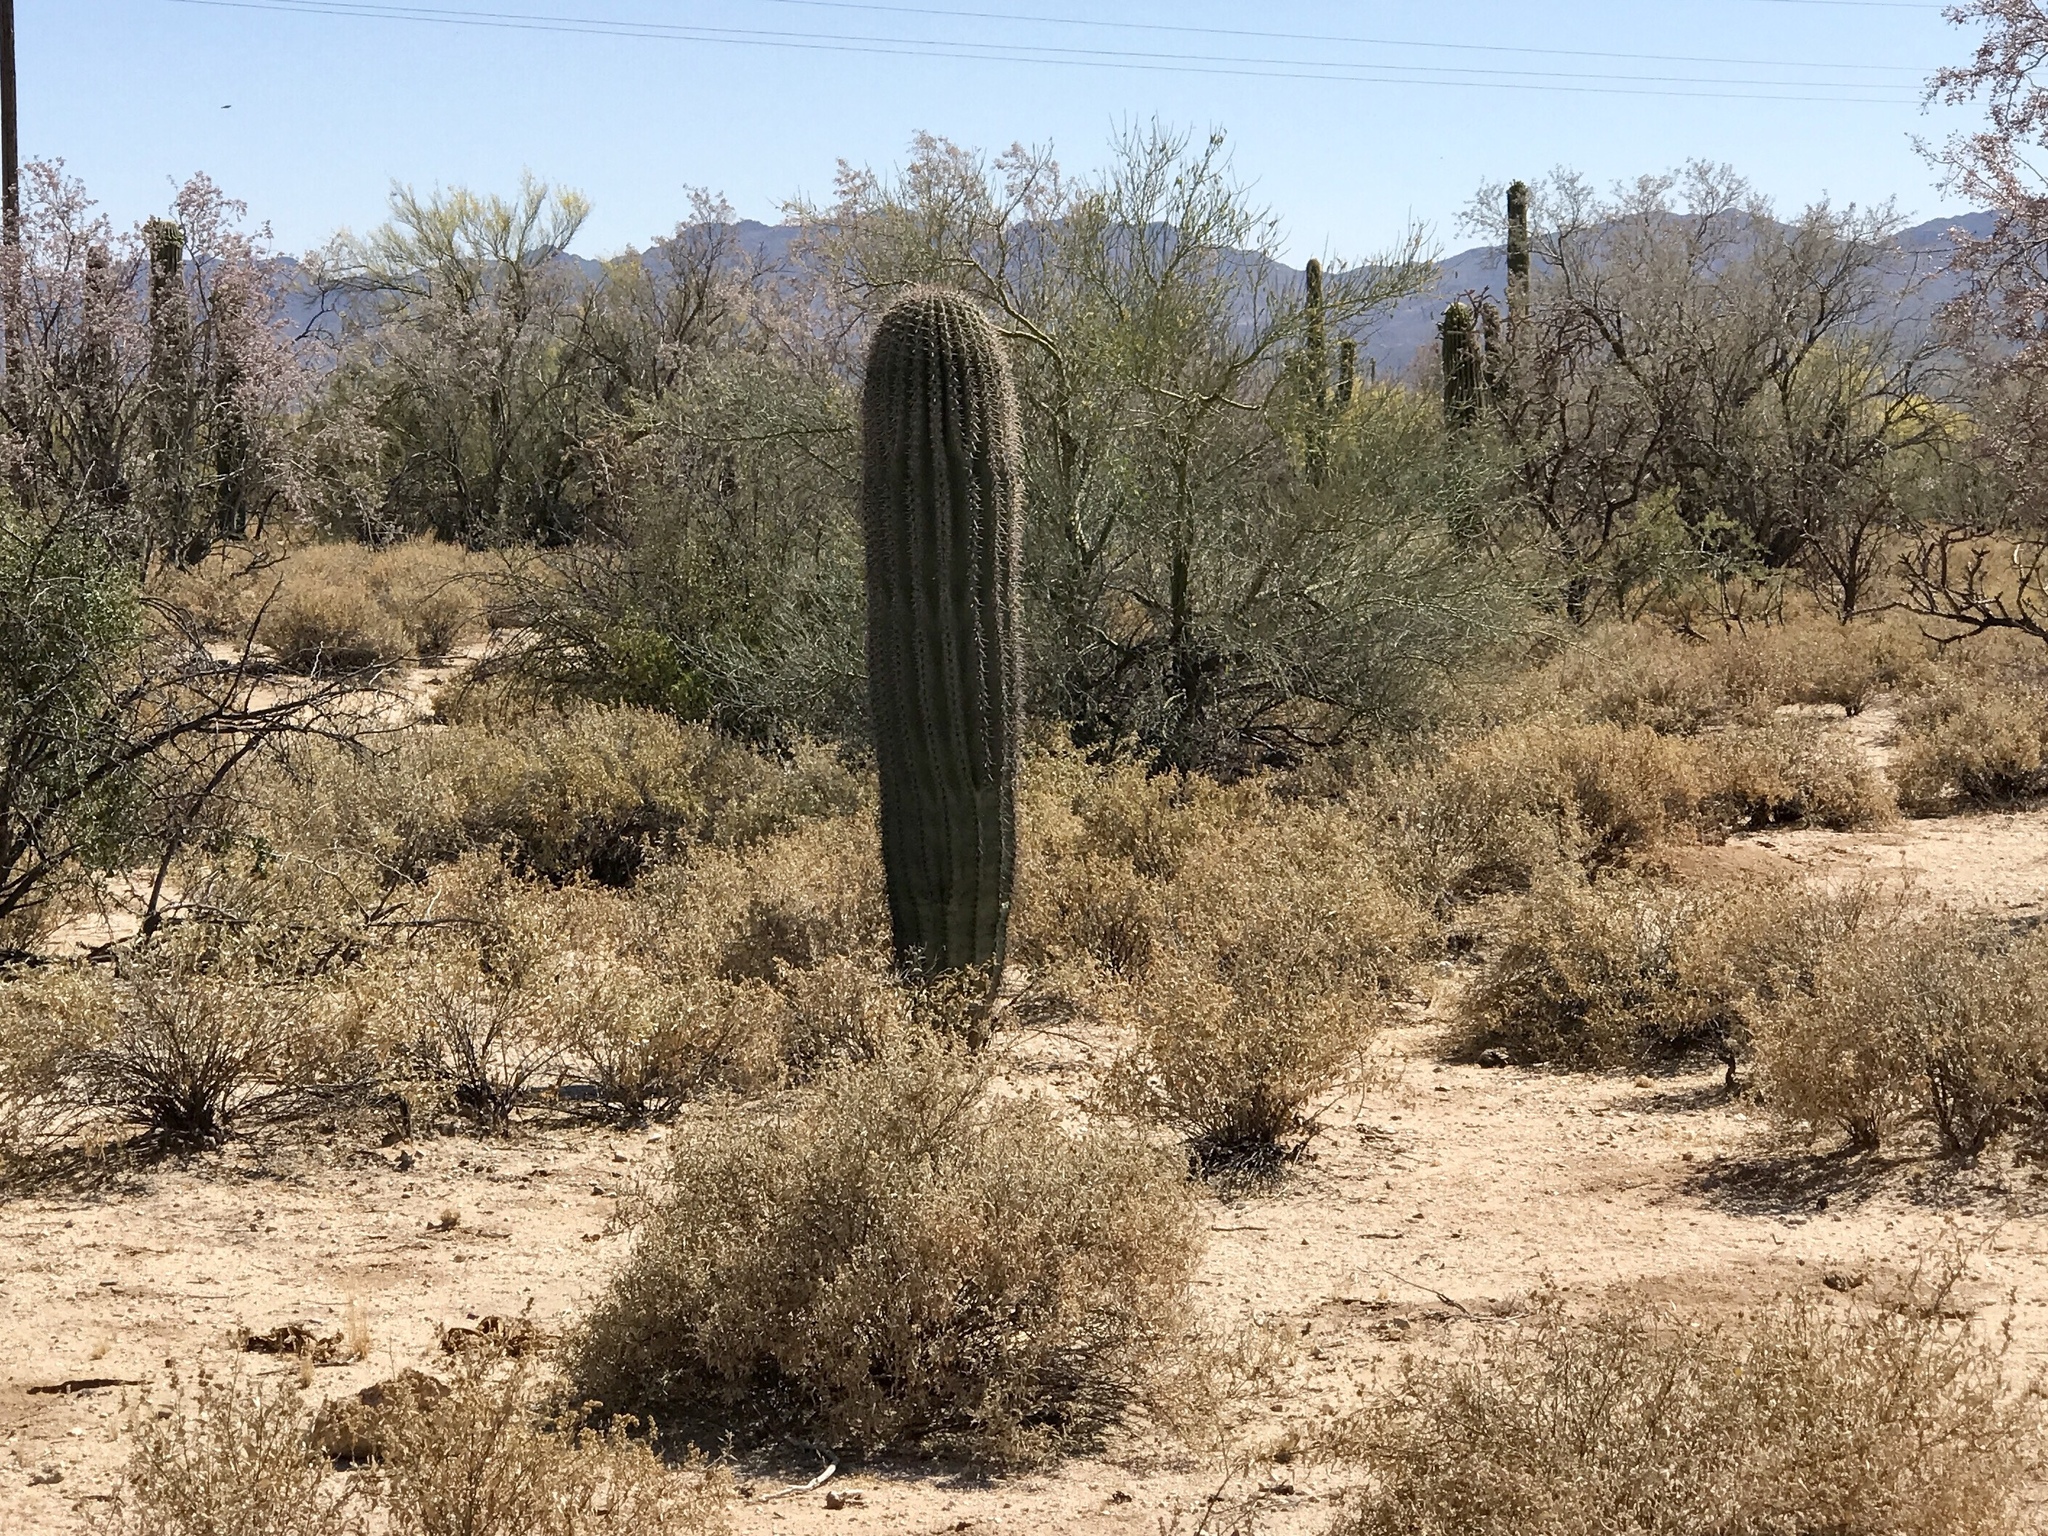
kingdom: Plantae
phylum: Tracheophyta
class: Magnoliopsida
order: Caryophyllales
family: Cactaceae
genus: Carnegiea
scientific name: Carnegiea gigantea
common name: Saguaro
